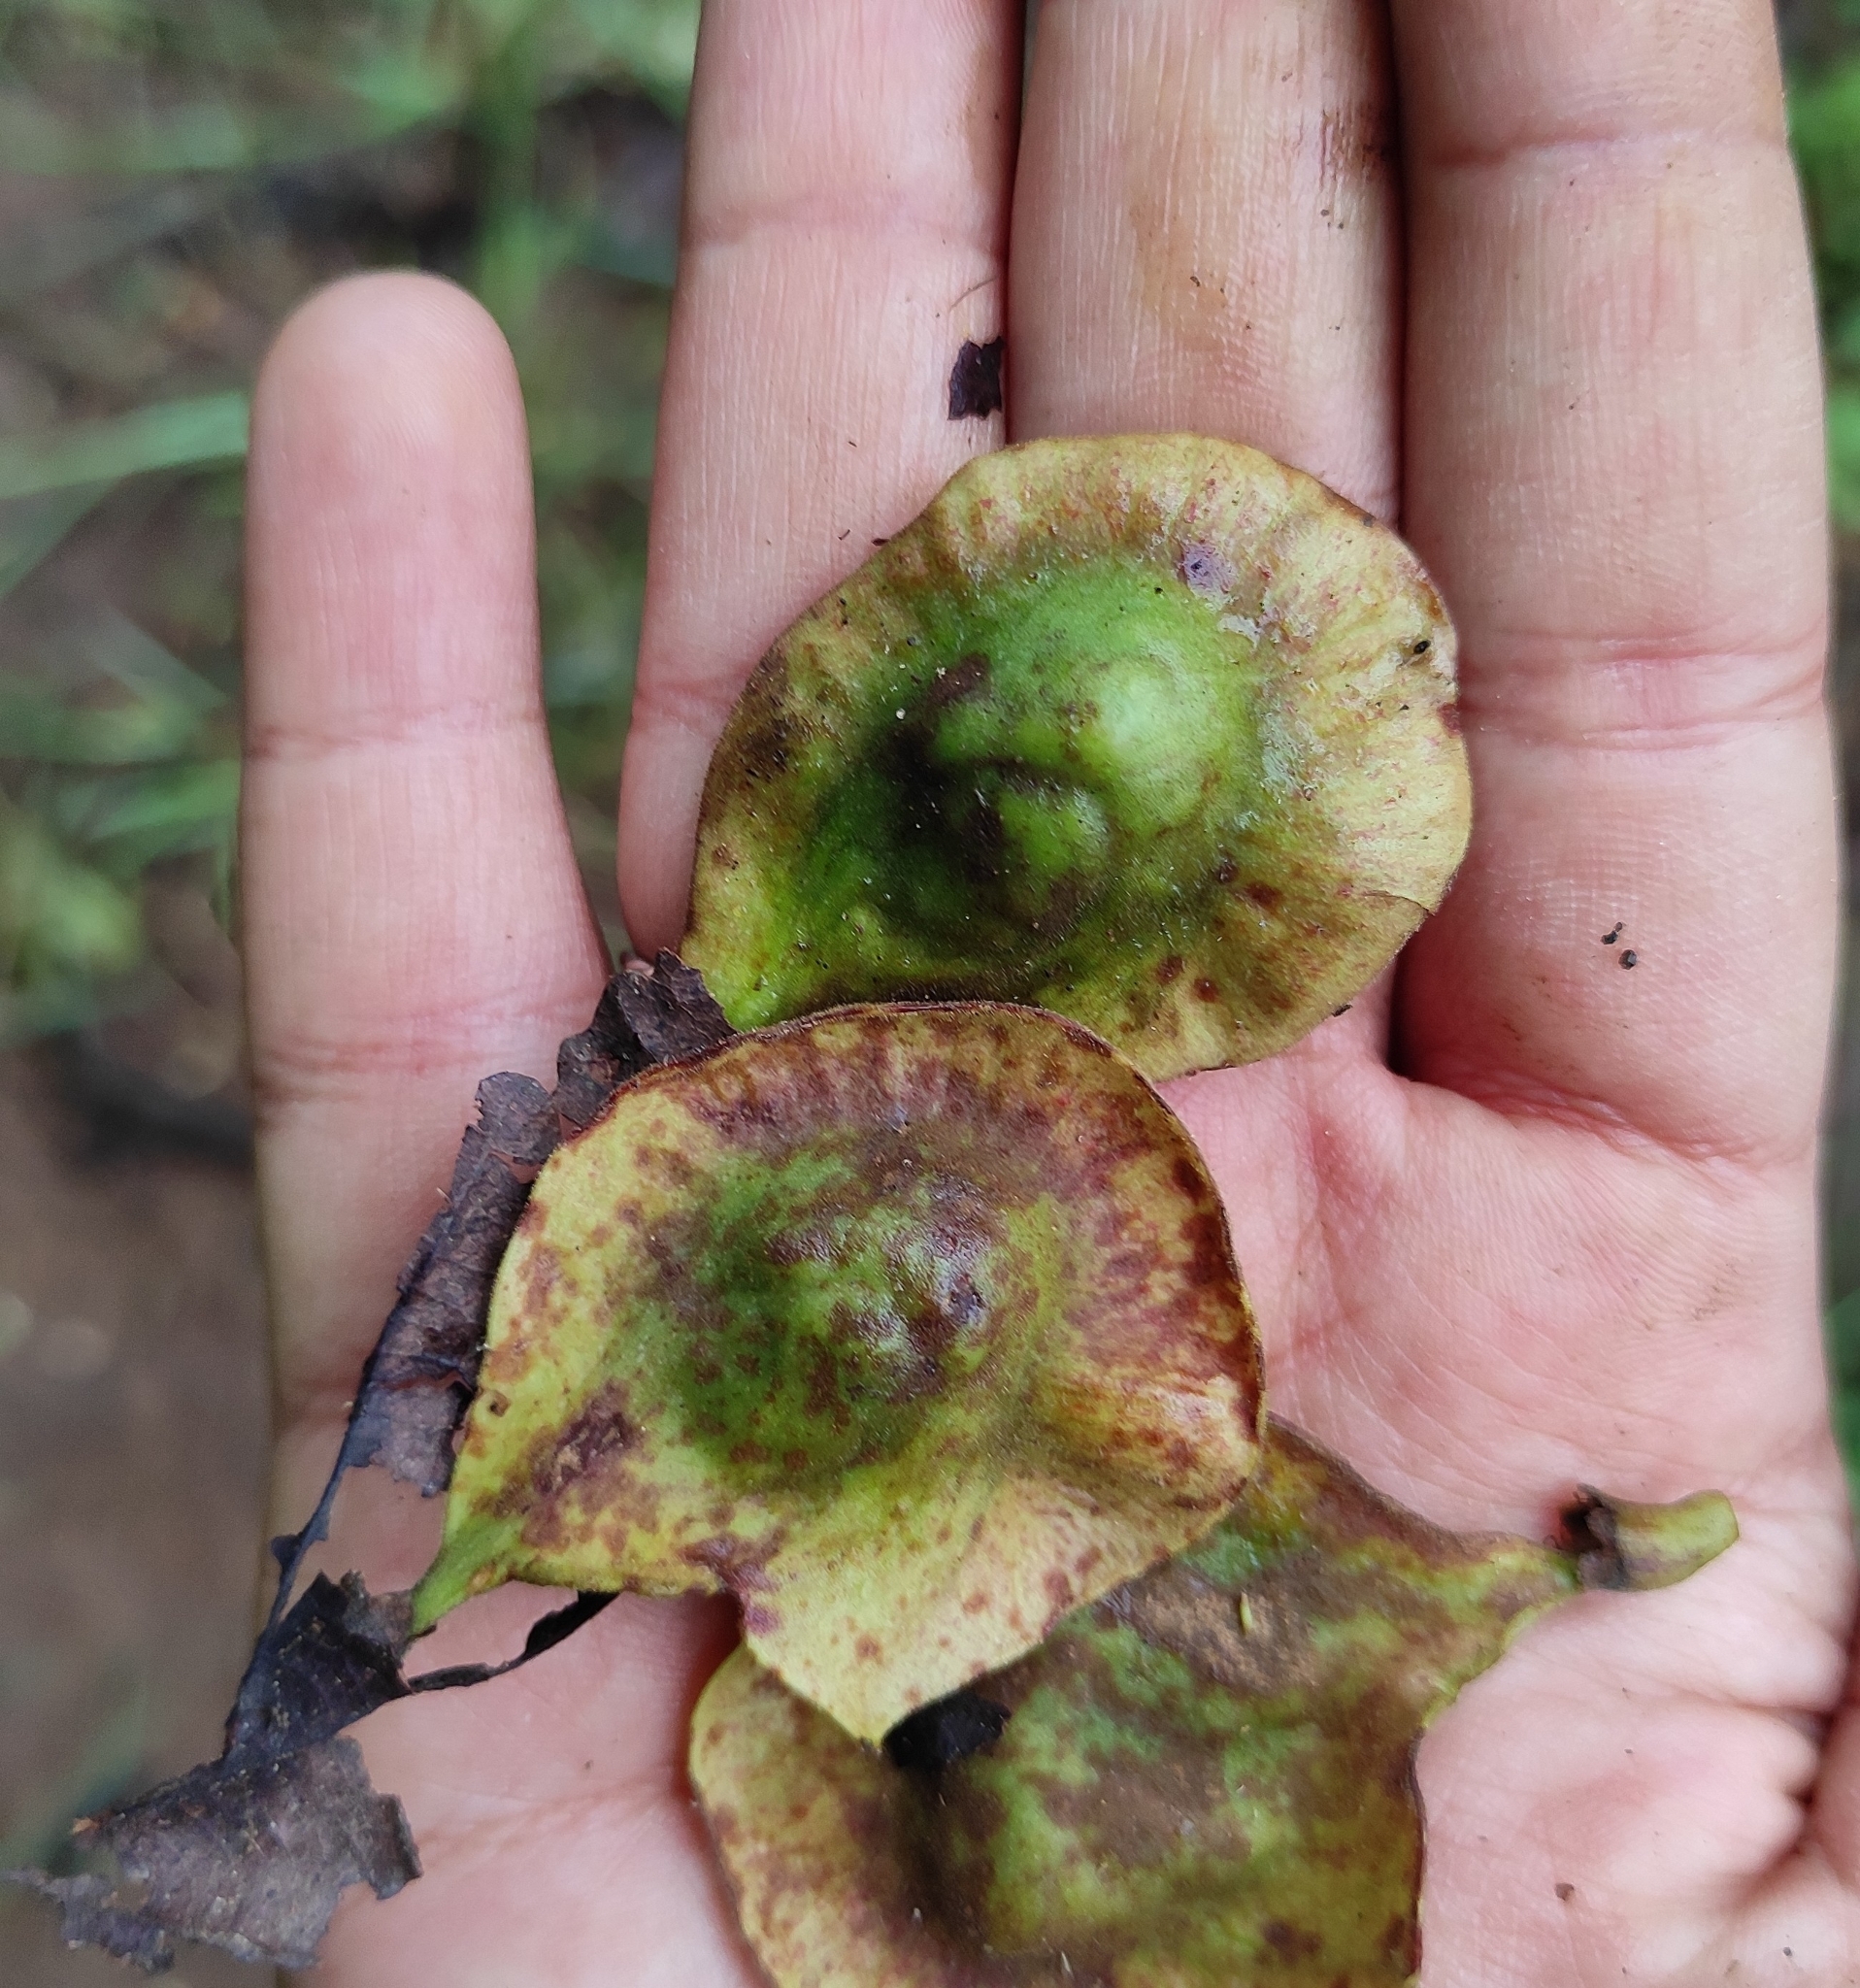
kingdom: Plantae
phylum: Tracheophyta
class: Magnoliopsida
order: Fabales
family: Fabaceae
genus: Pterocarpus
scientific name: Pterocarpus marsupium
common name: East indian/malabar kino
